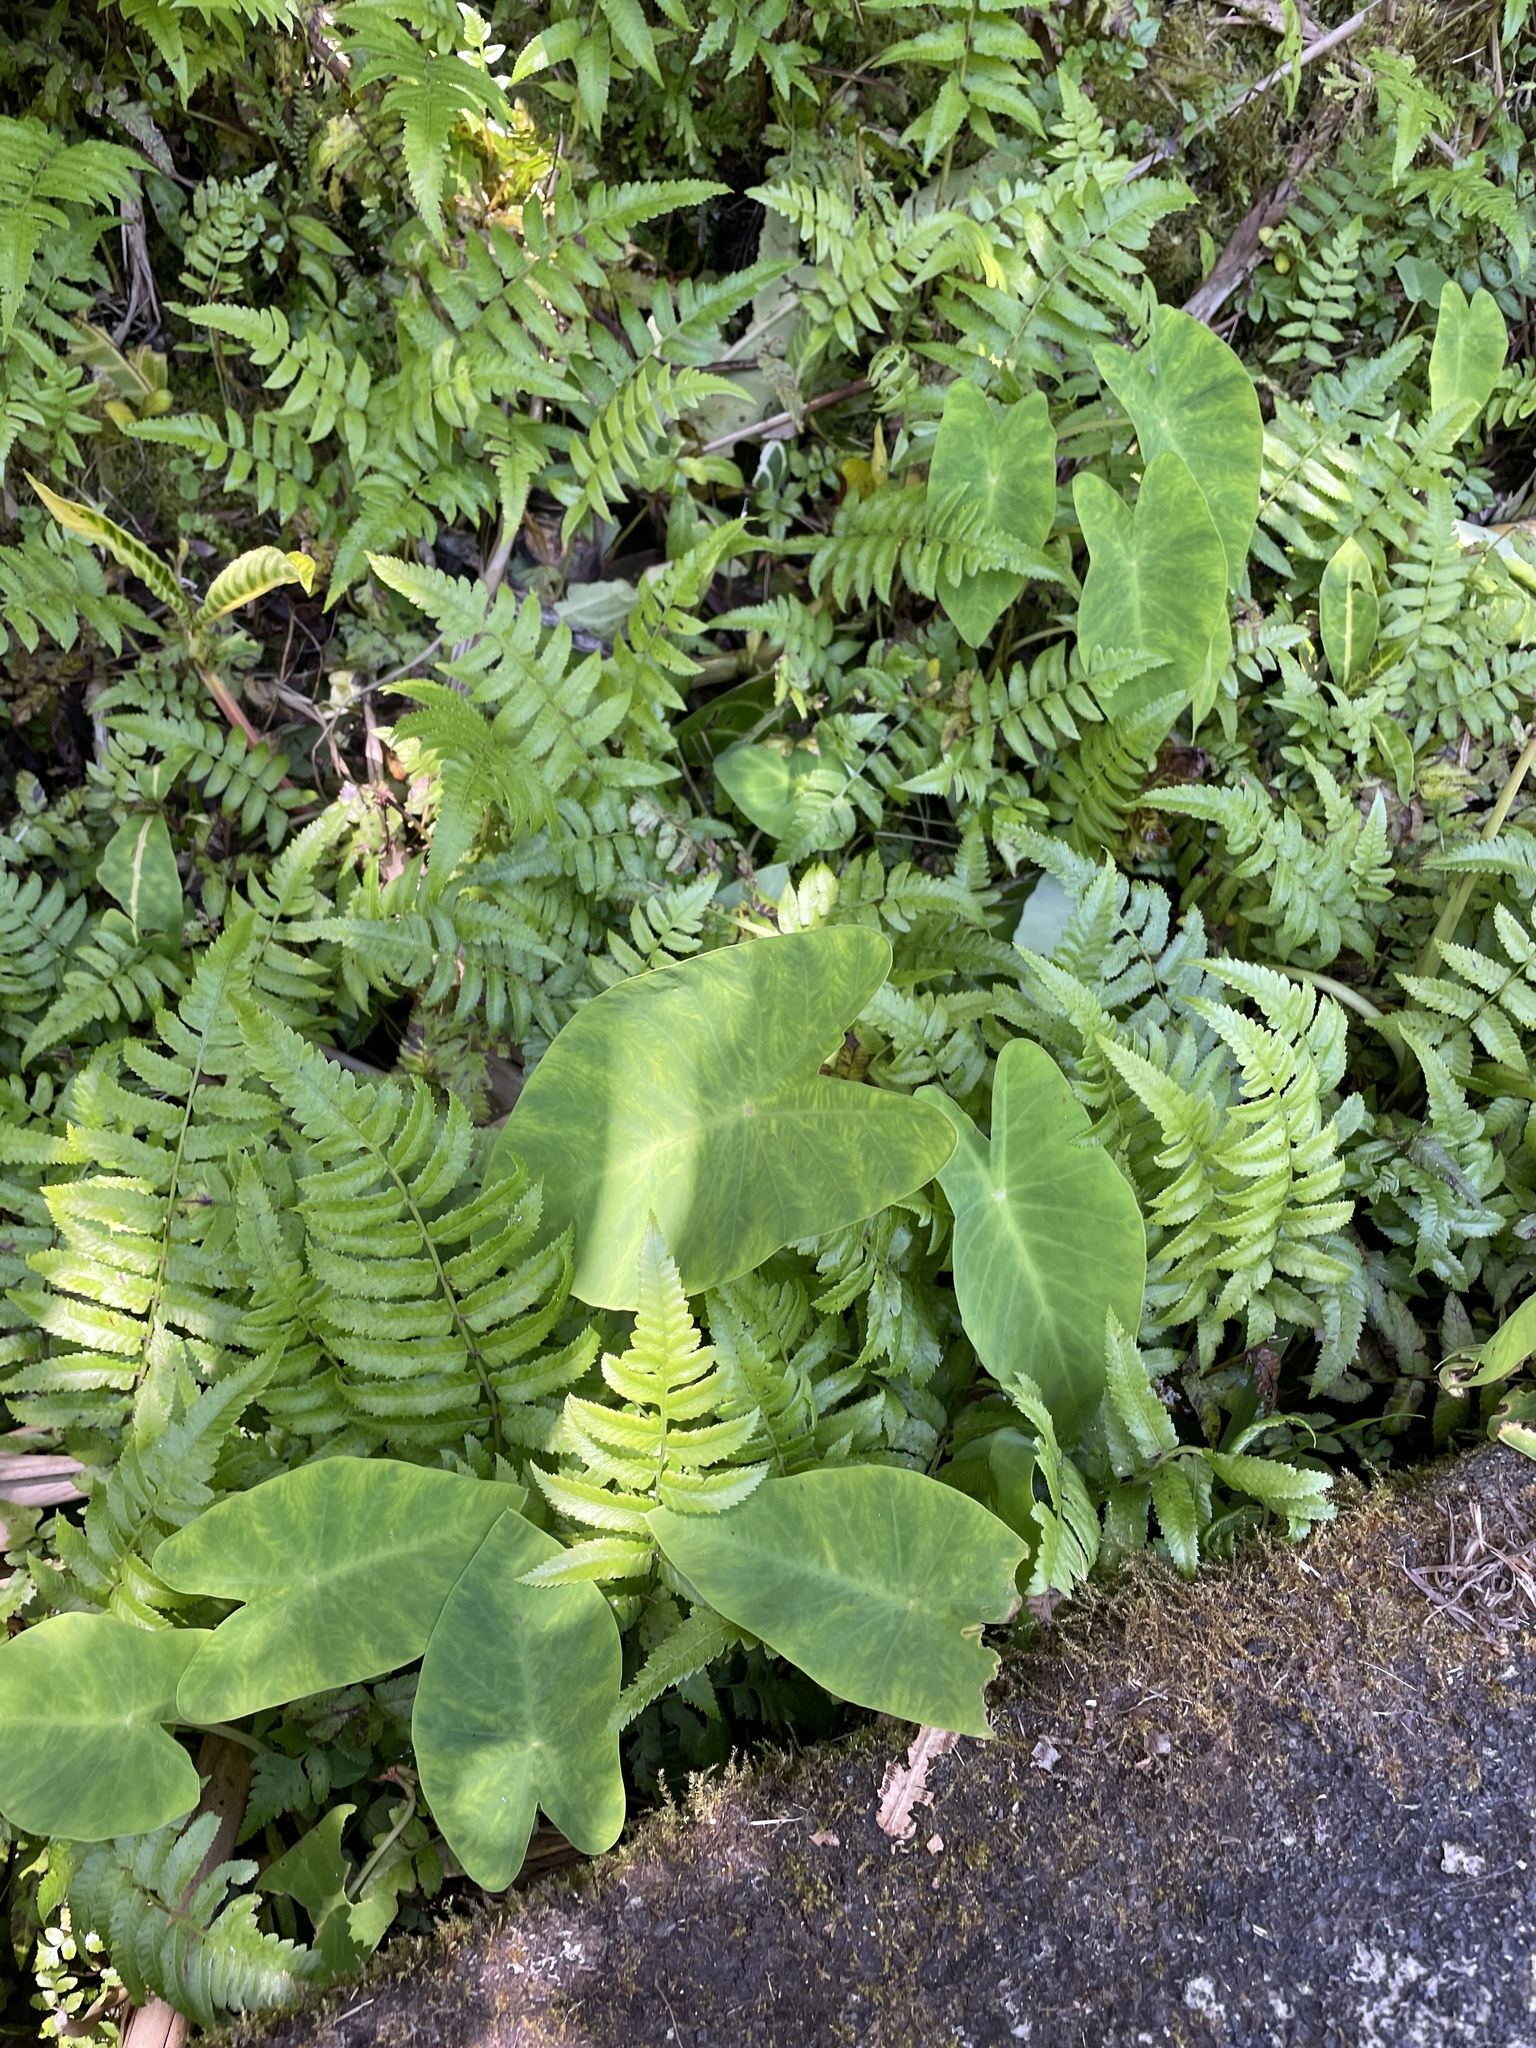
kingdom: Plantae
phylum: Tracheophyta
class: Liliopsida
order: Alismatales
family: Araceae
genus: Colocasia
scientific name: Colocasia esculenta
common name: Taro
